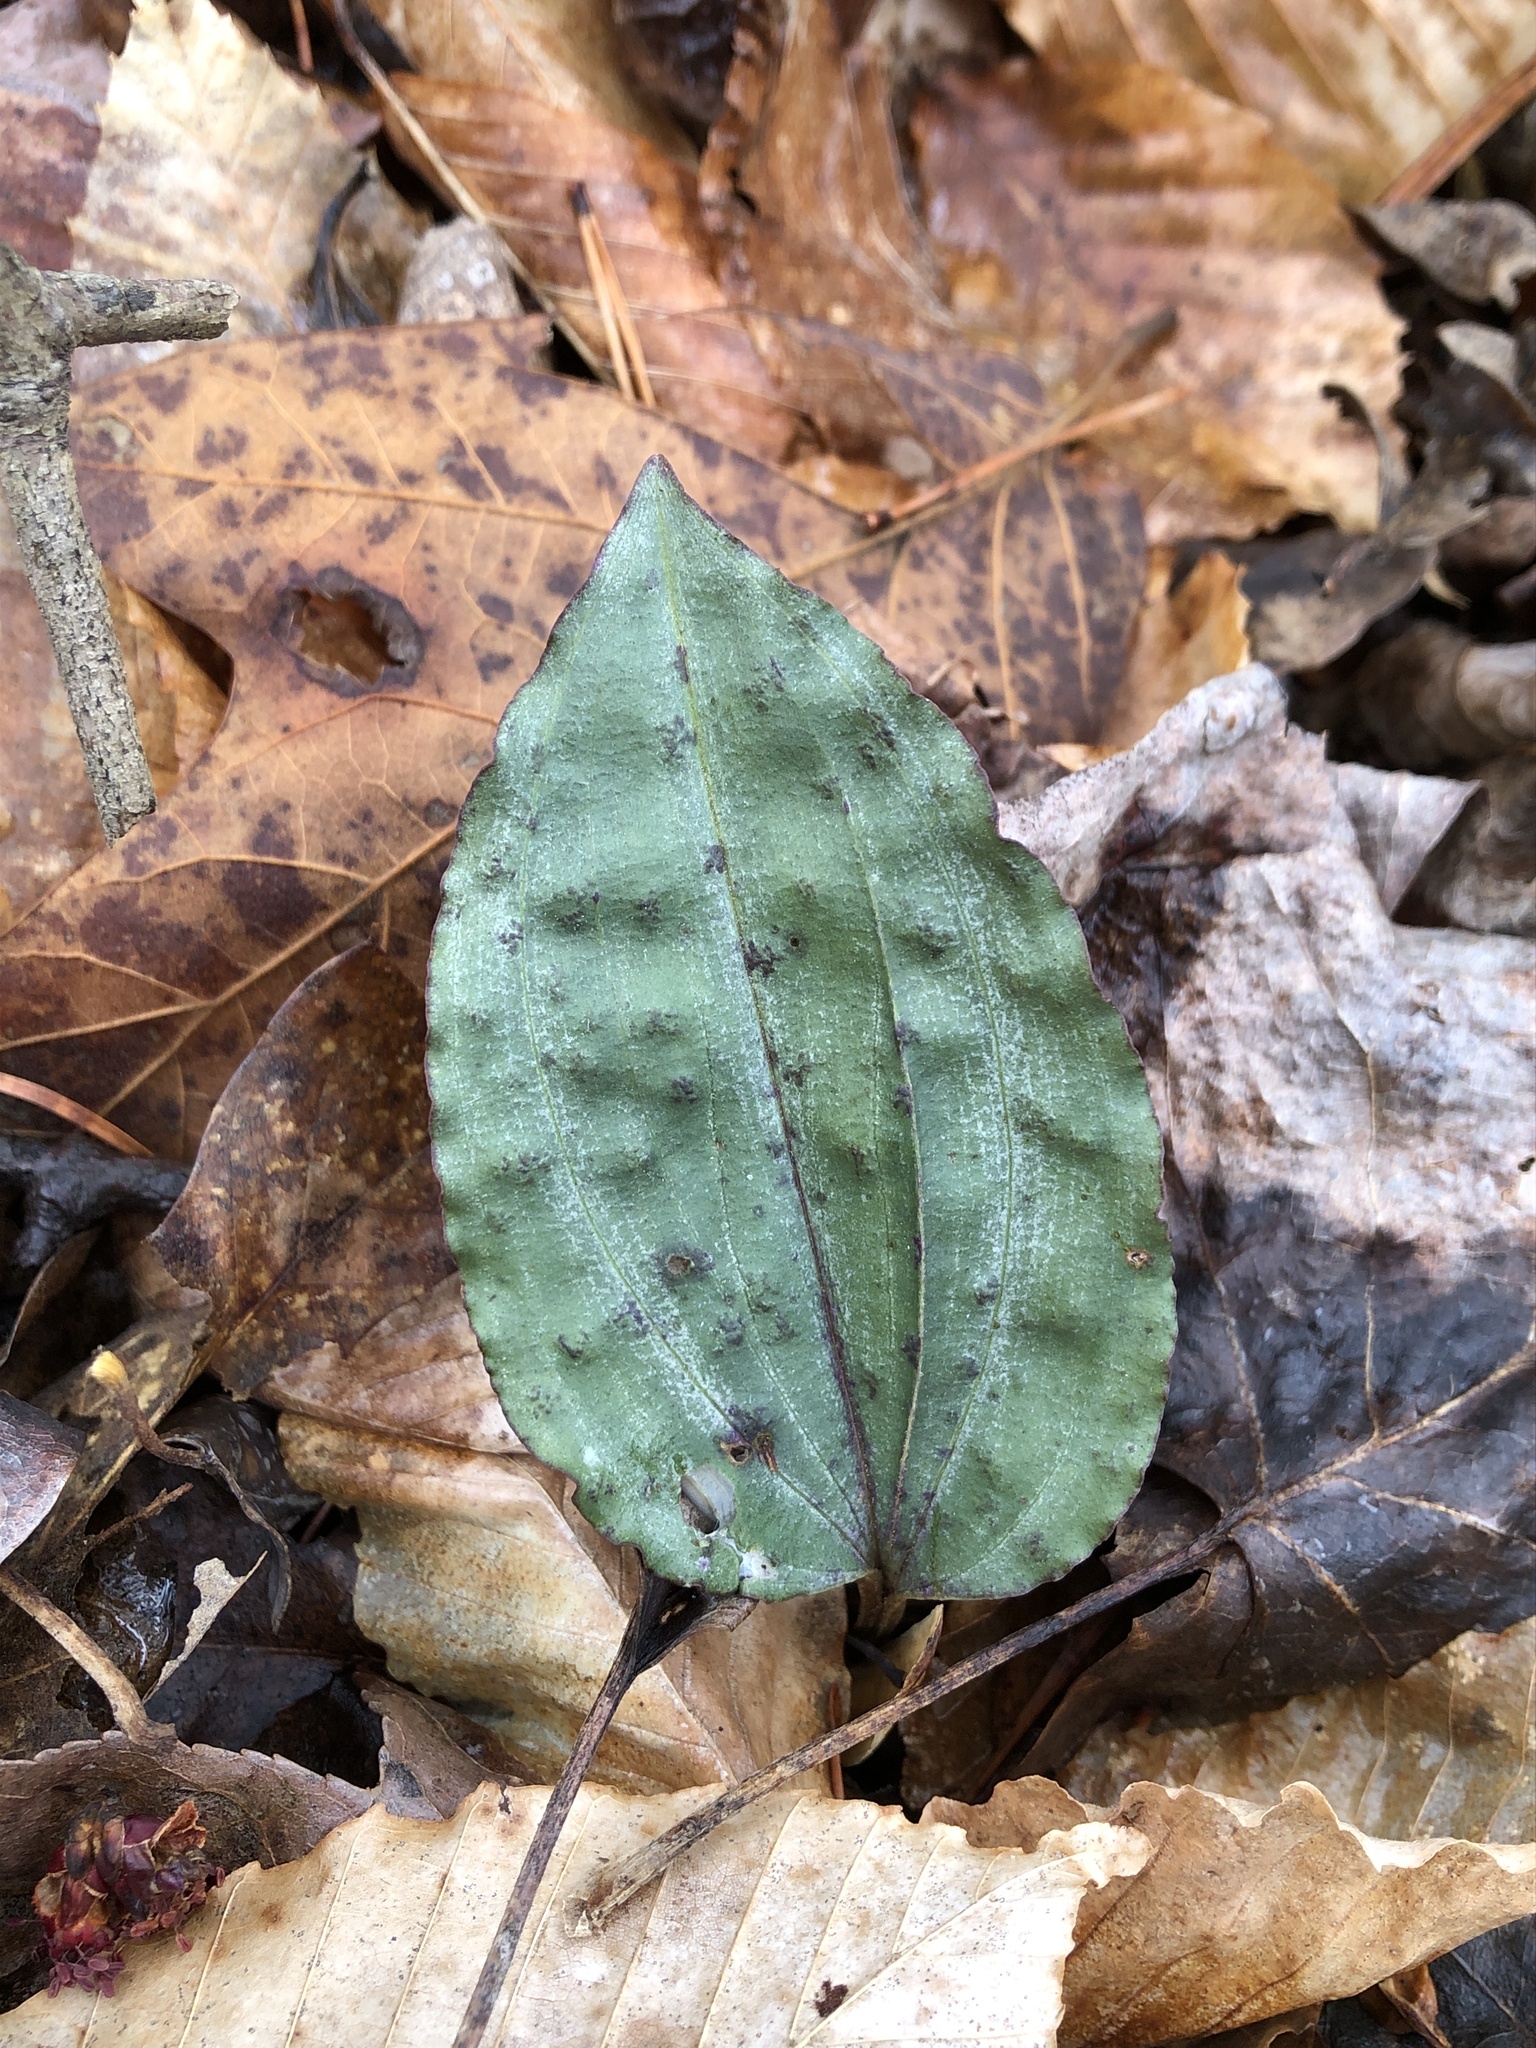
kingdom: Plantae
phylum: Tracheophyta
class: Liliopsida
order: Asparagales
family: Orchidaceae
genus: Tipularia
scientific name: Tipularia discolor
